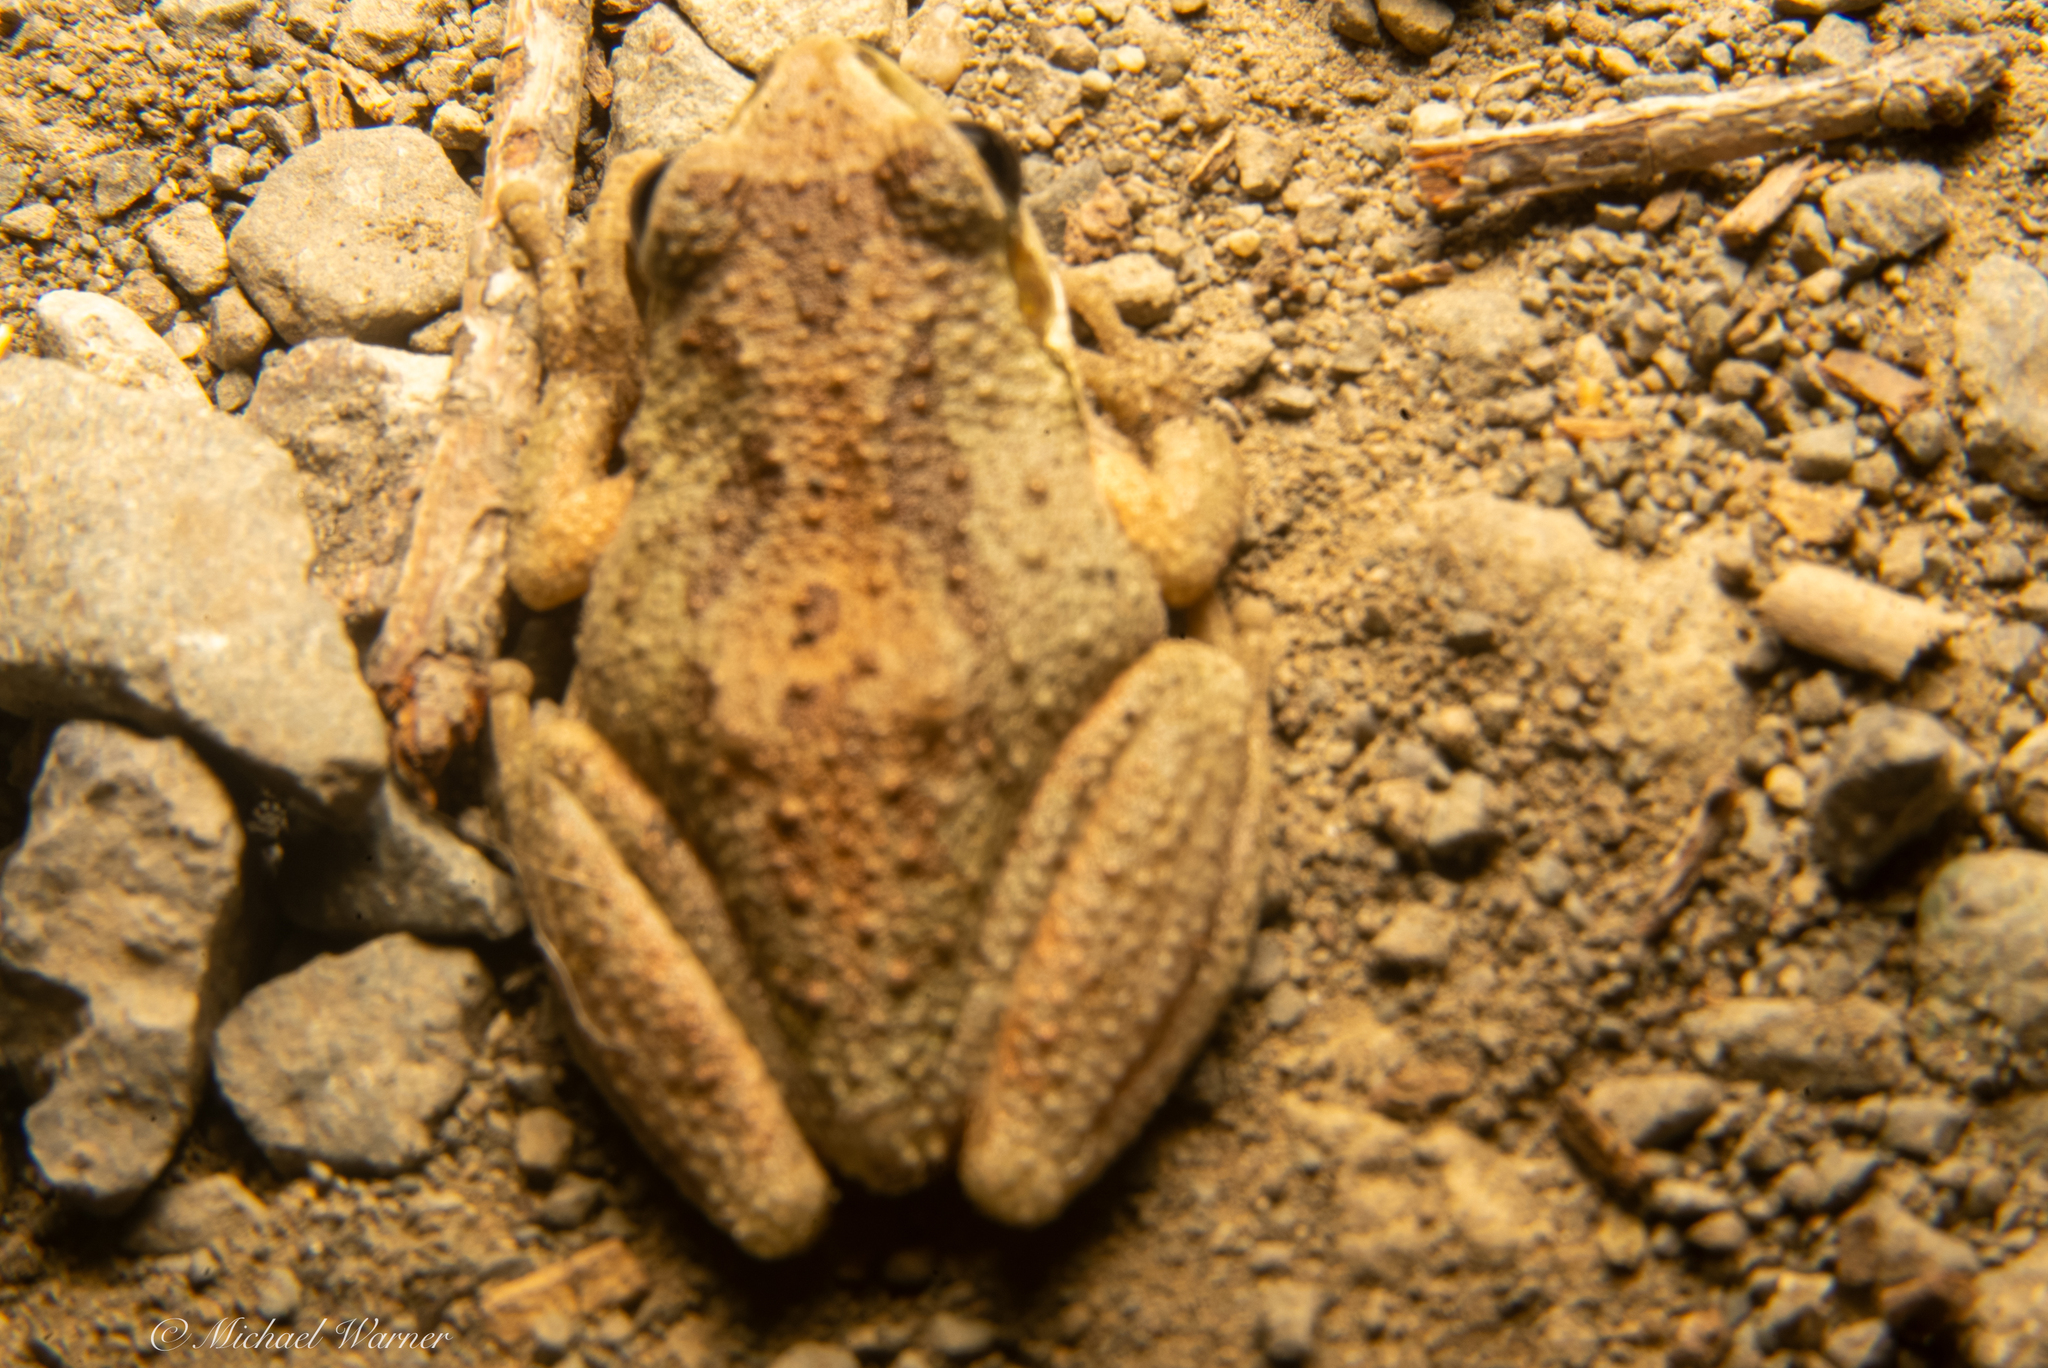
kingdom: Animalia
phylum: Chordata
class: Amphibia
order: Anura
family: Hylidae
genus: Pseudacris
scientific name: Pseudacris regilla
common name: Pacific chorus frog
